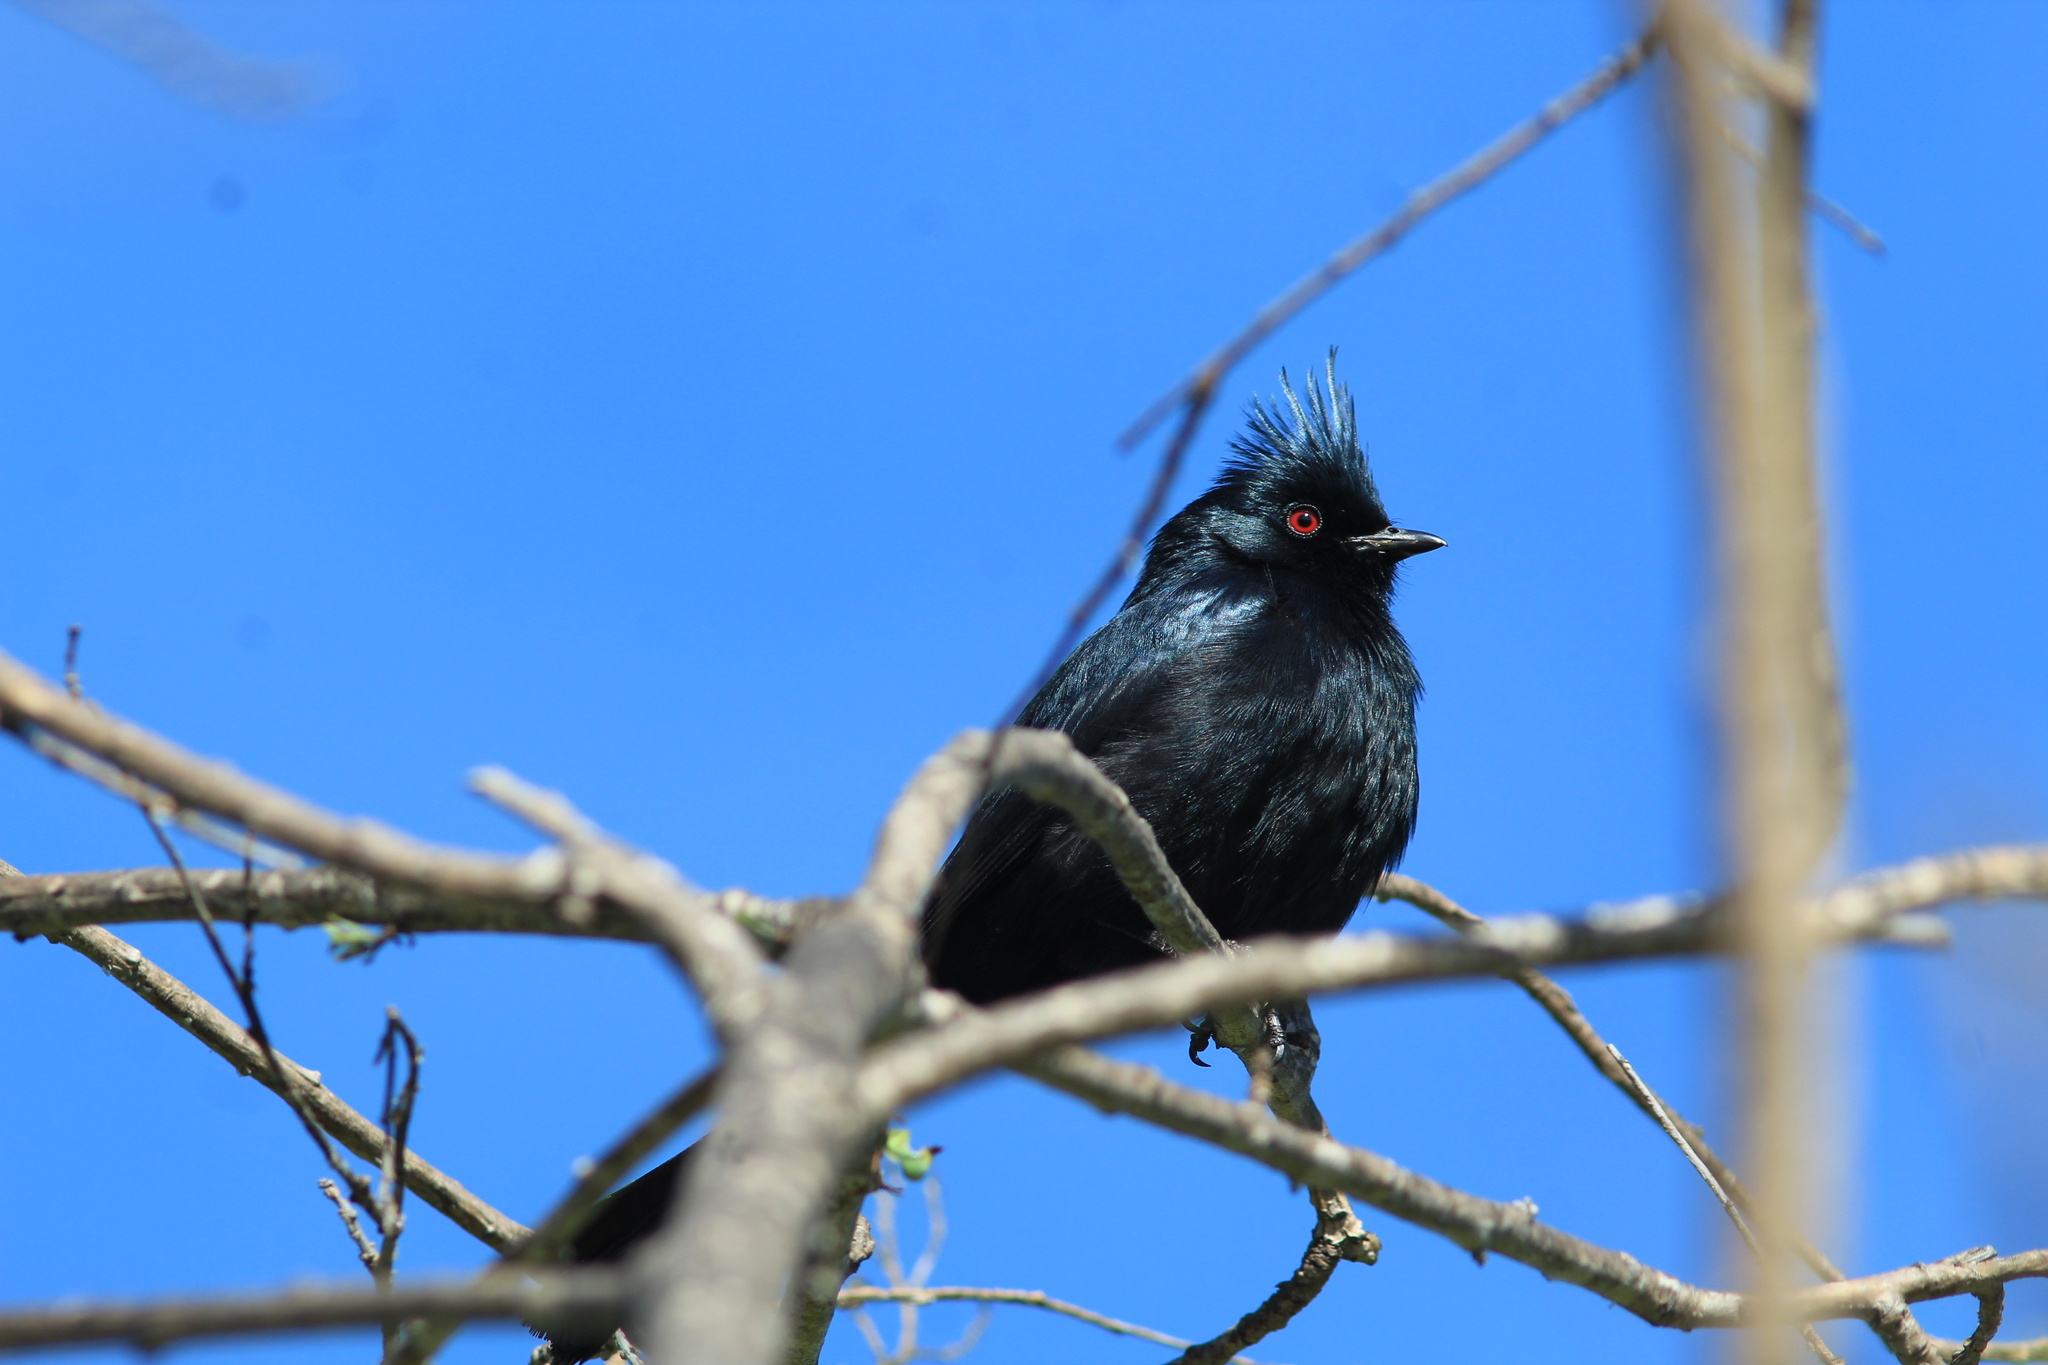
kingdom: Animalia
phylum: Chordata
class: Aves
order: Passeriformes
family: Ptilogonatidae
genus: Phainopepla
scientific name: Phainopepla nitens
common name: Phainopepla
